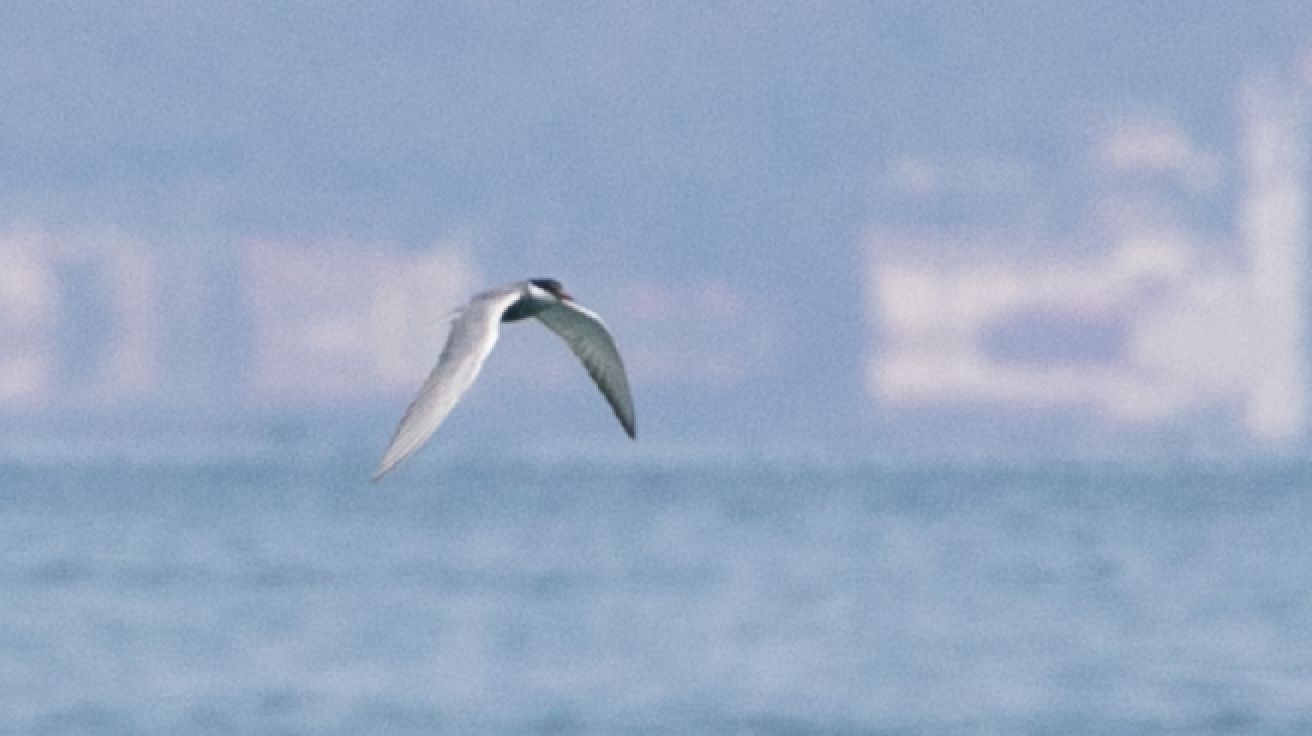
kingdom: Animalia
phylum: Chordata
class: Aves
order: Charadriiformes
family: Laridae
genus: Chlidonias
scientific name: Chlidonias hybrida
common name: Whiskered tern
